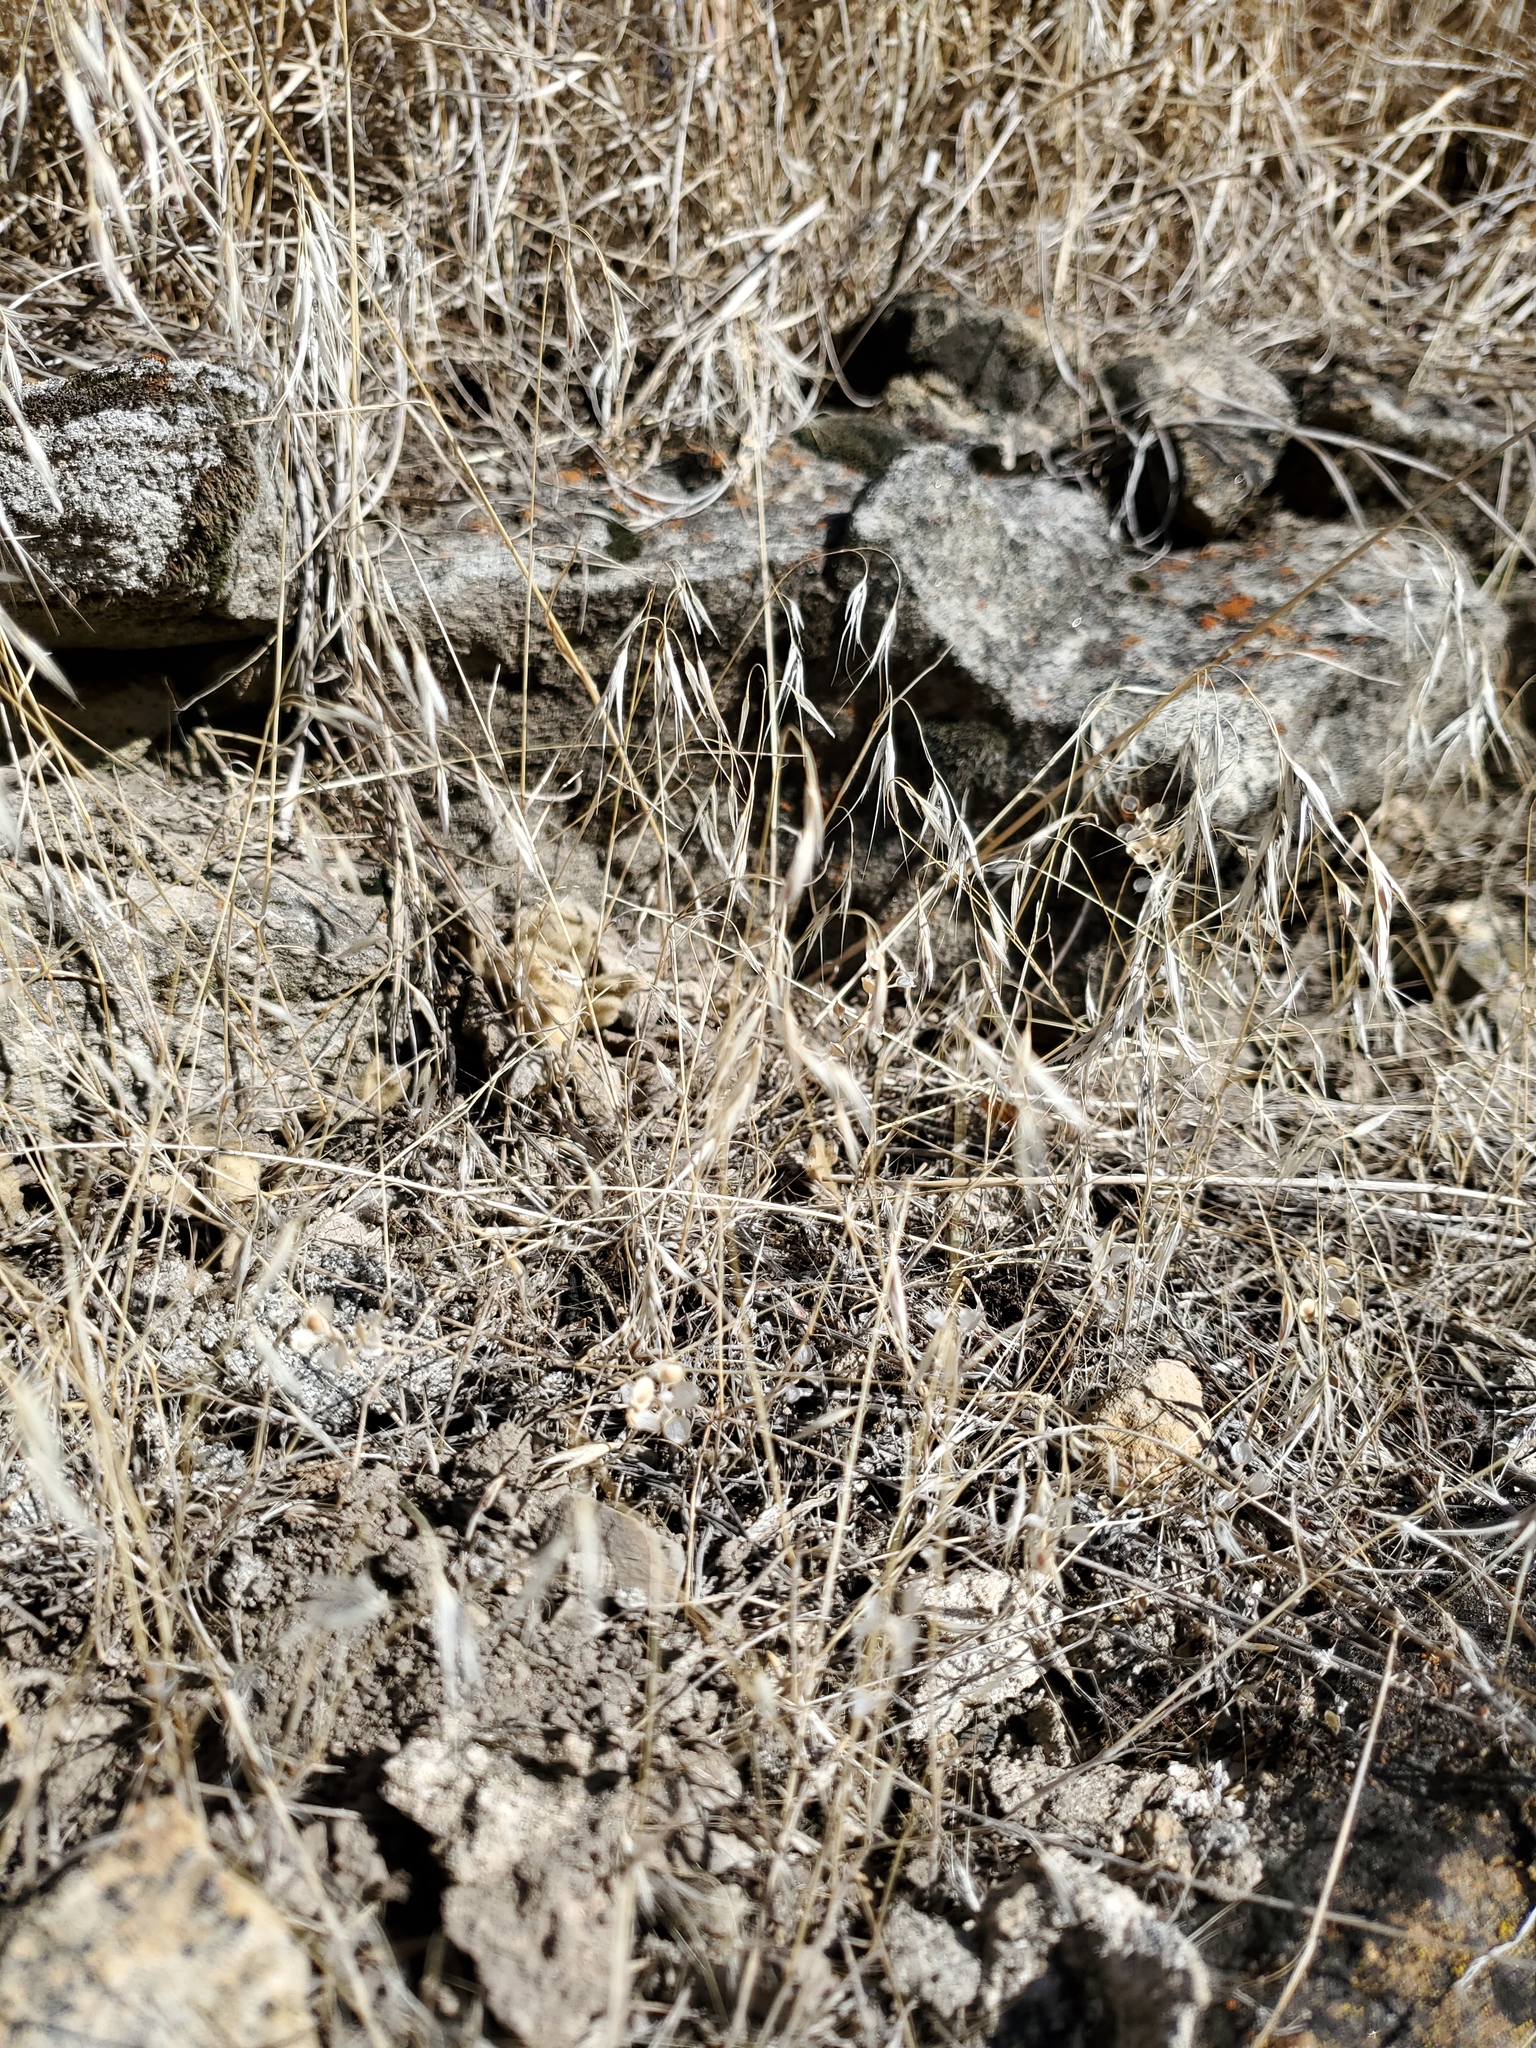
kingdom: Plantae
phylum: Tracheophyta
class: Liliopsida
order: Poales
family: Poaceae
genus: Bromus
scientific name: Bromus tectorum
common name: Cheatgrass
